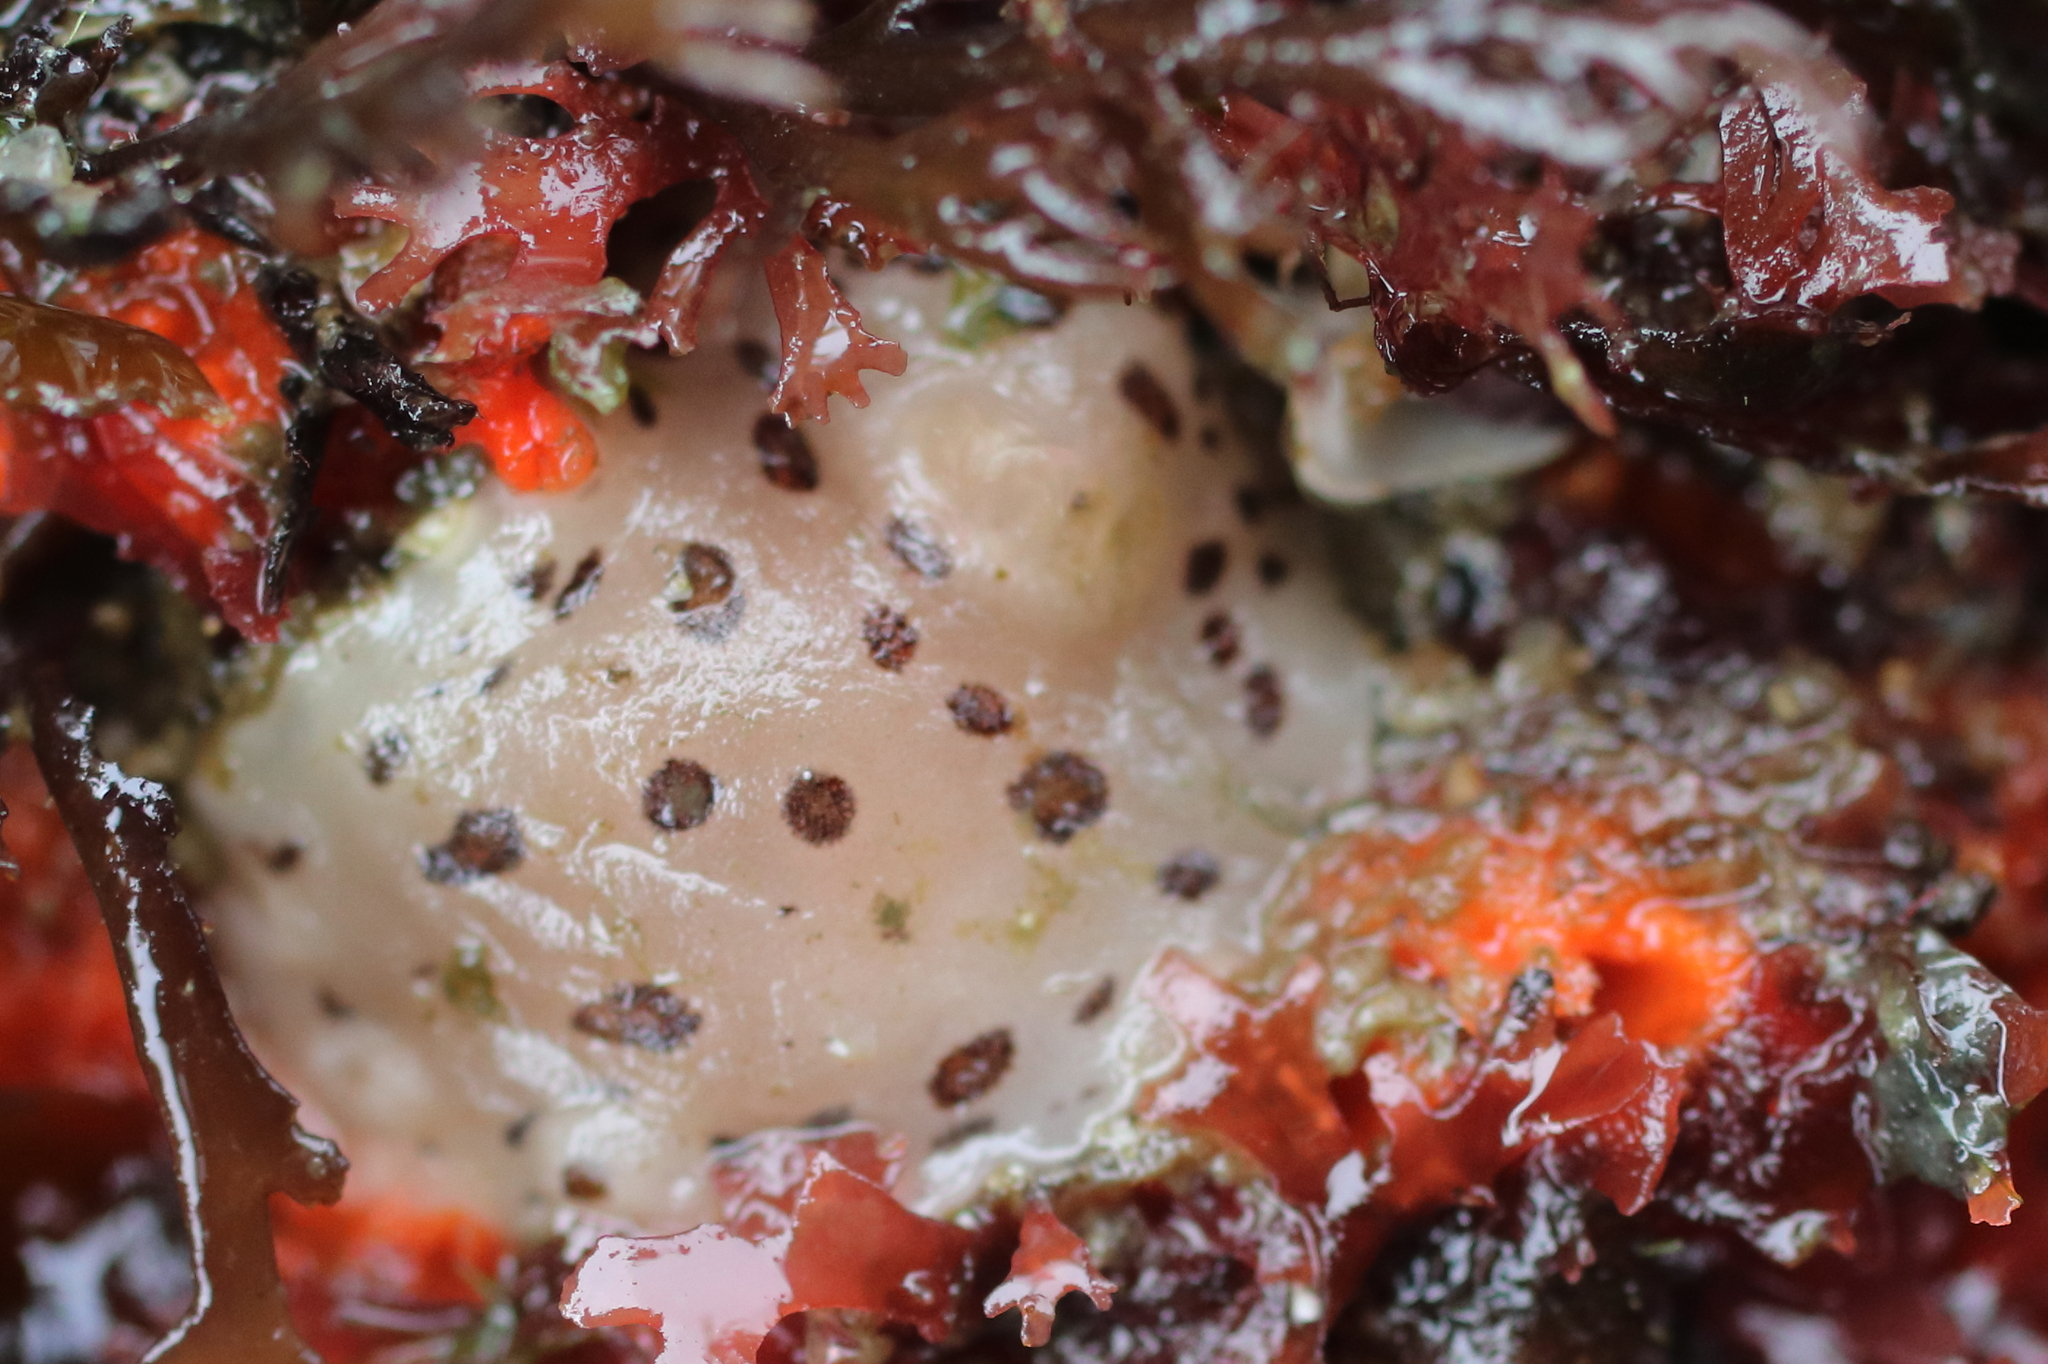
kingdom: Animalia
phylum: Mollusca
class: Gastropoda
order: Nudibranchia
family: Discodorididae
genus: Diaulula
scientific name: Diaulula odonoghuei
